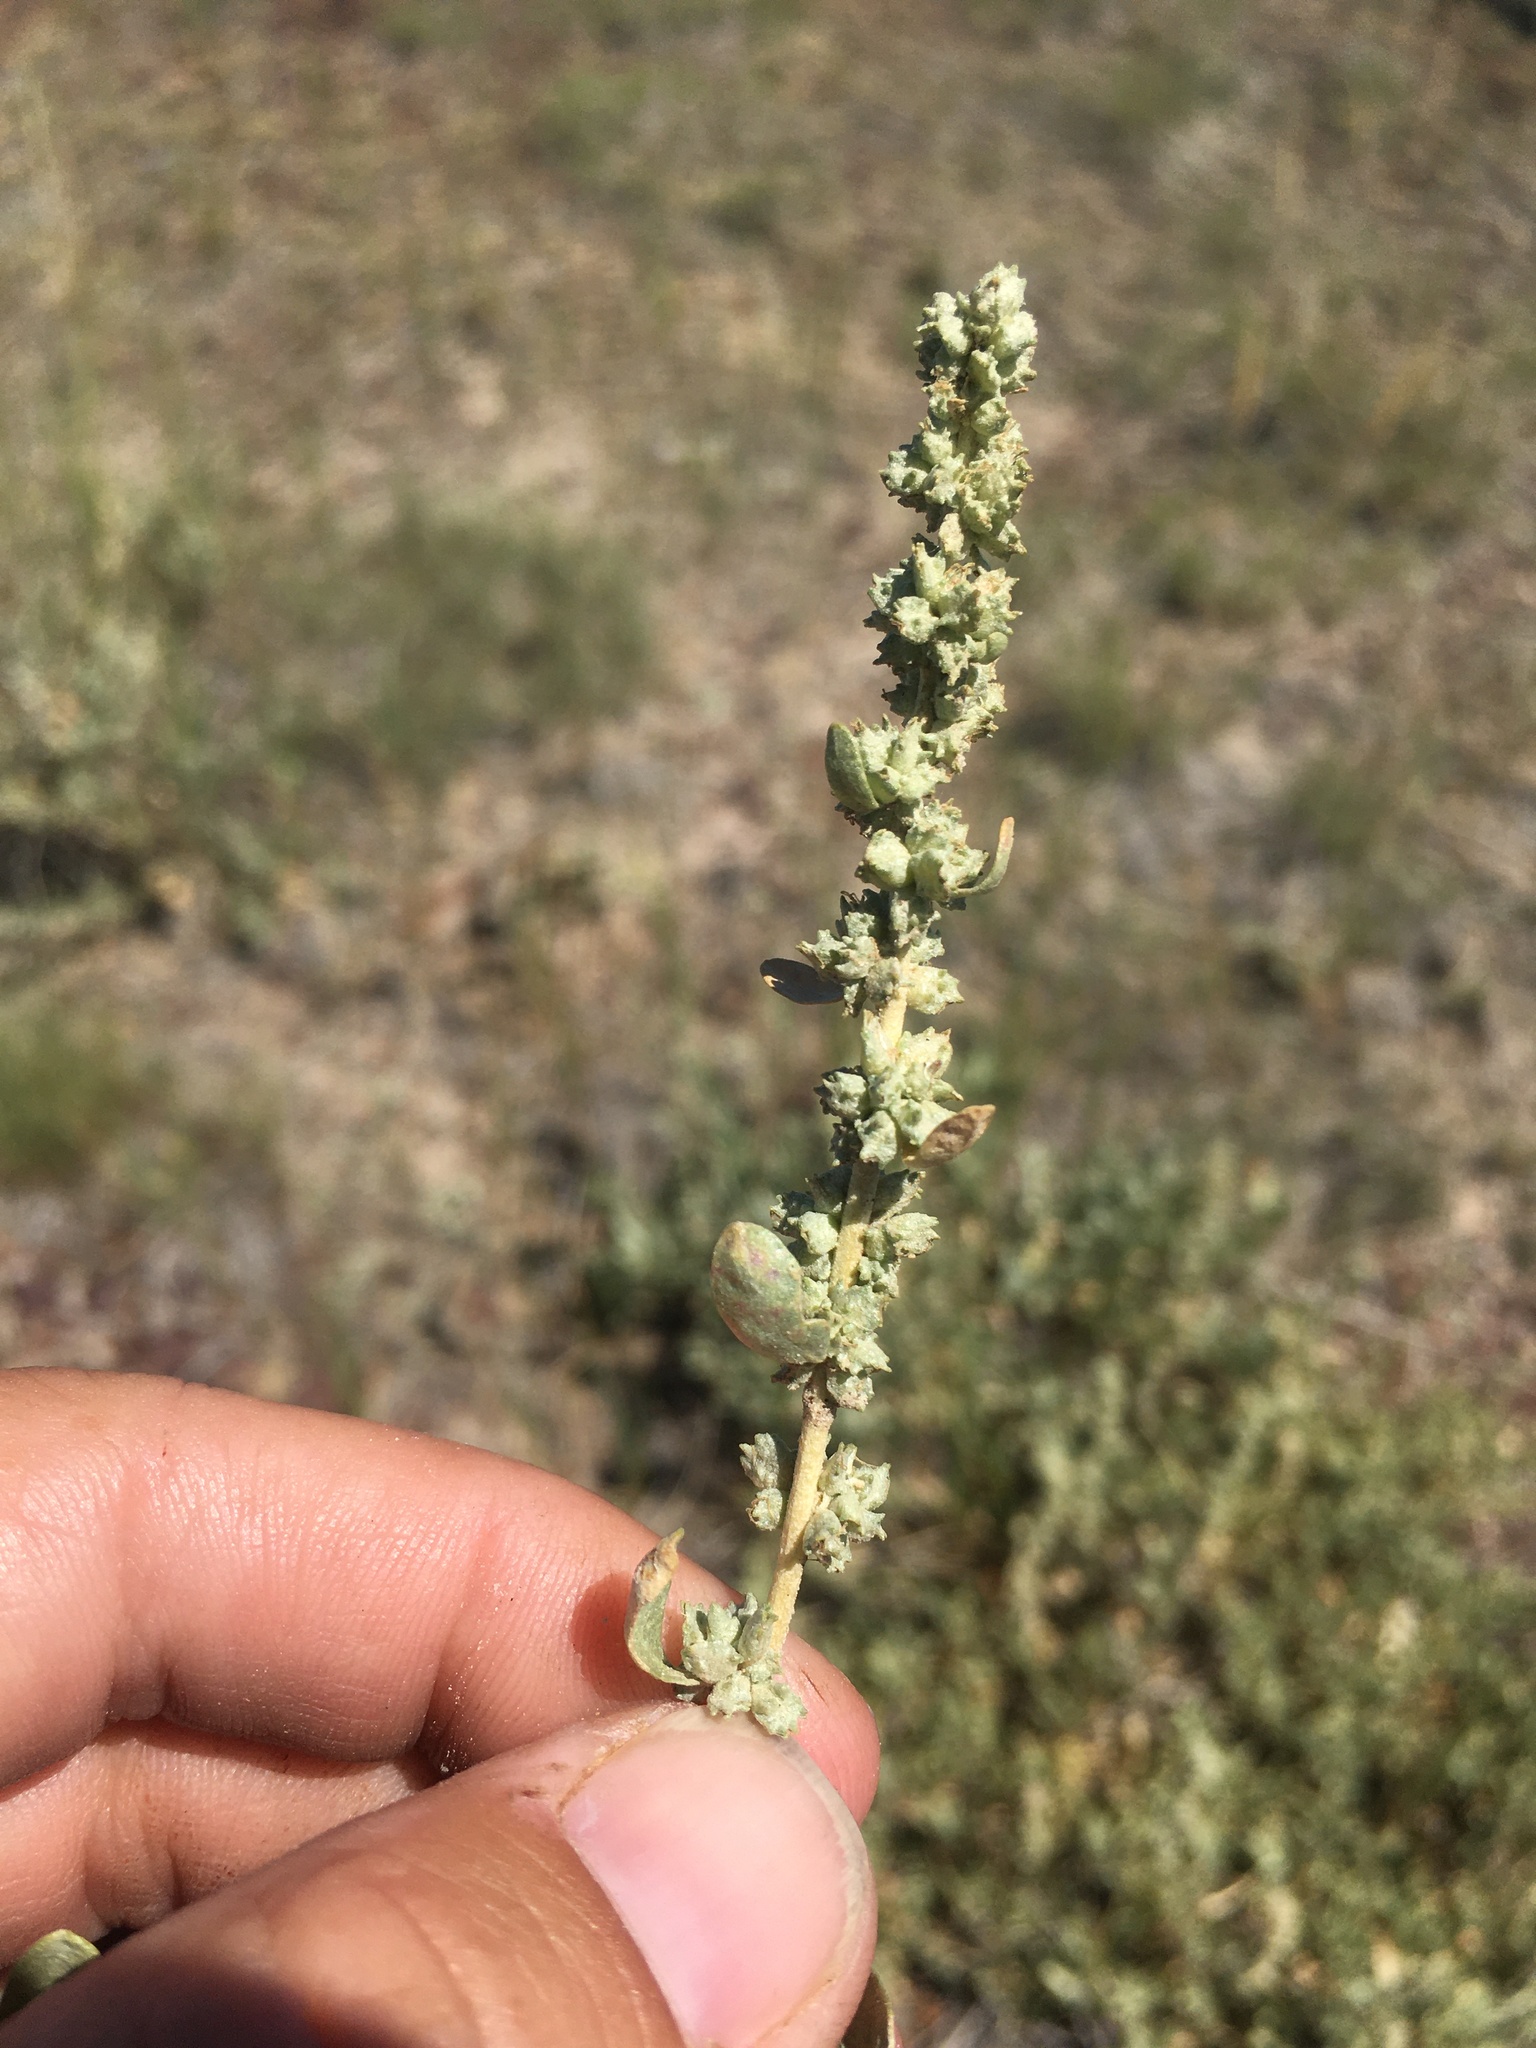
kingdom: Plantae
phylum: Tracheophyta
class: Magnoliopsida
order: Caryophyllales
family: Amaranthaceae
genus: Atriplex
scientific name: Atriplex gardneri
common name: Gardner's orache
